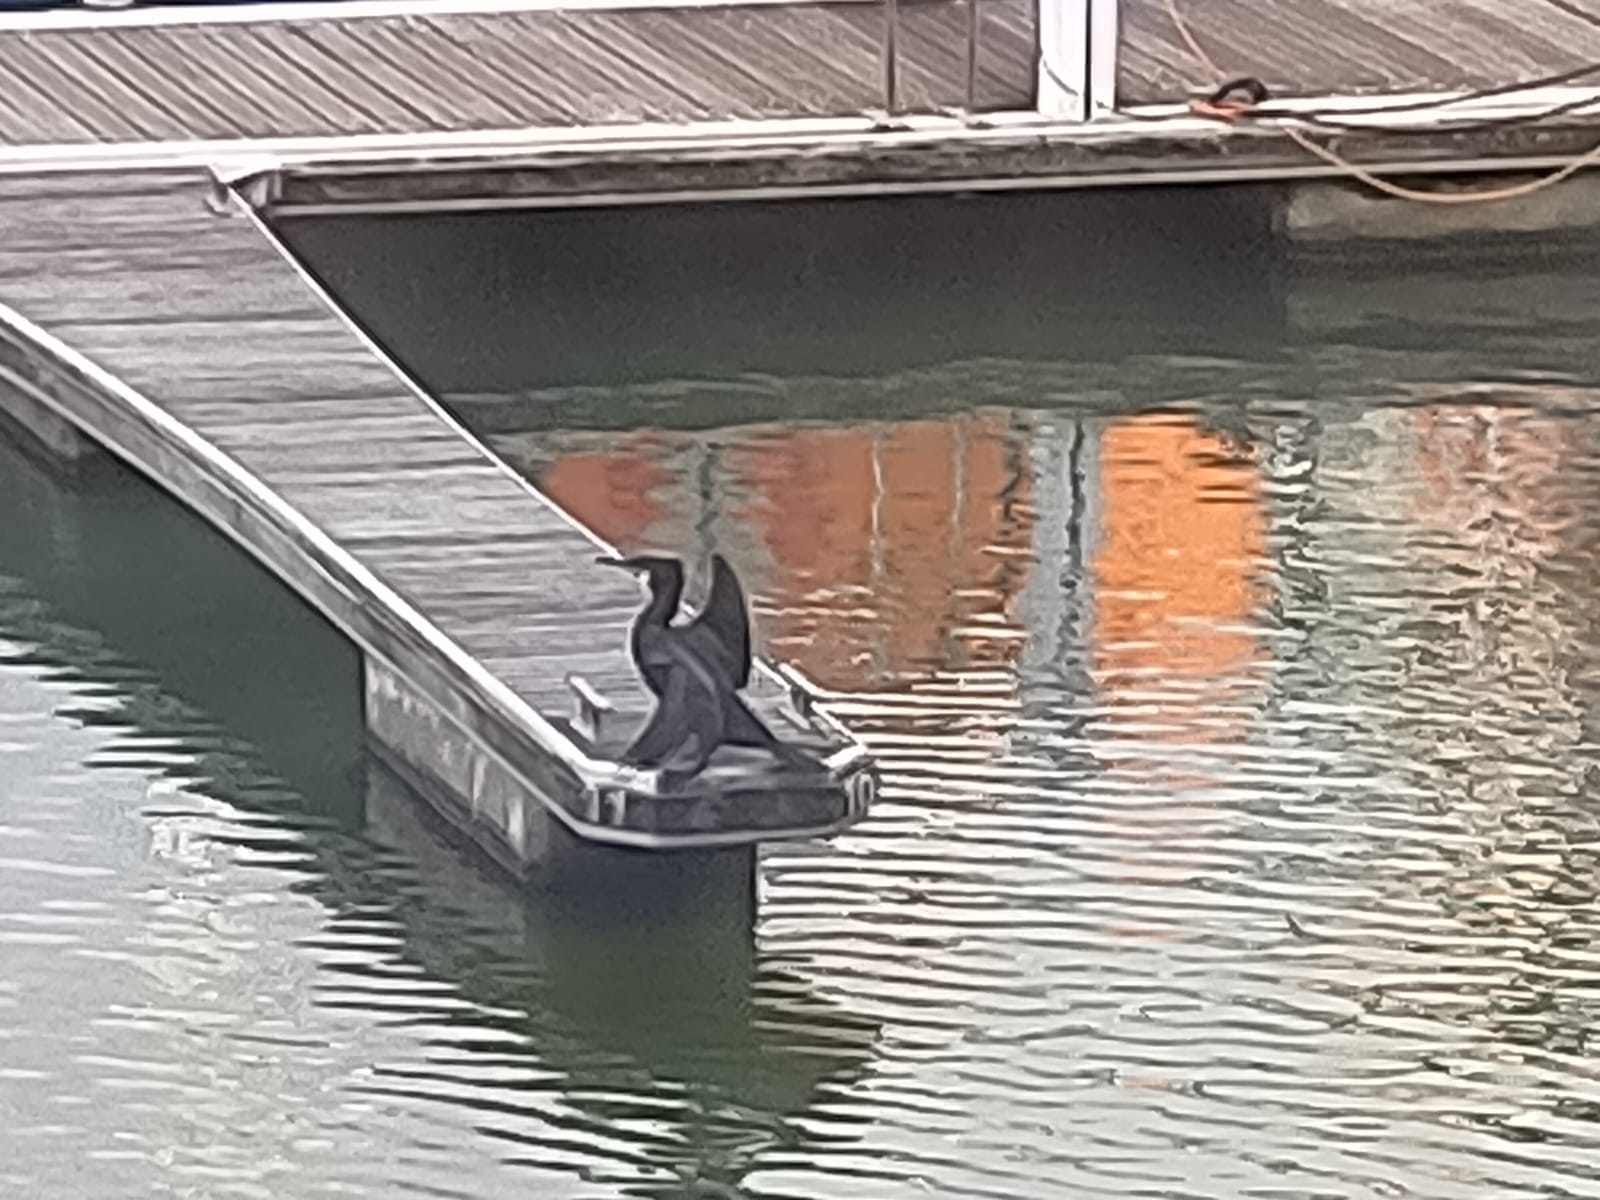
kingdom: Animalia
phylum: Chordata
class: Aves
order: Suliformes
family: Phalacrocoracidae
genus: Phalacrocorax
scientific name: Phalacrocorax carbo
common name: Great cormorant
